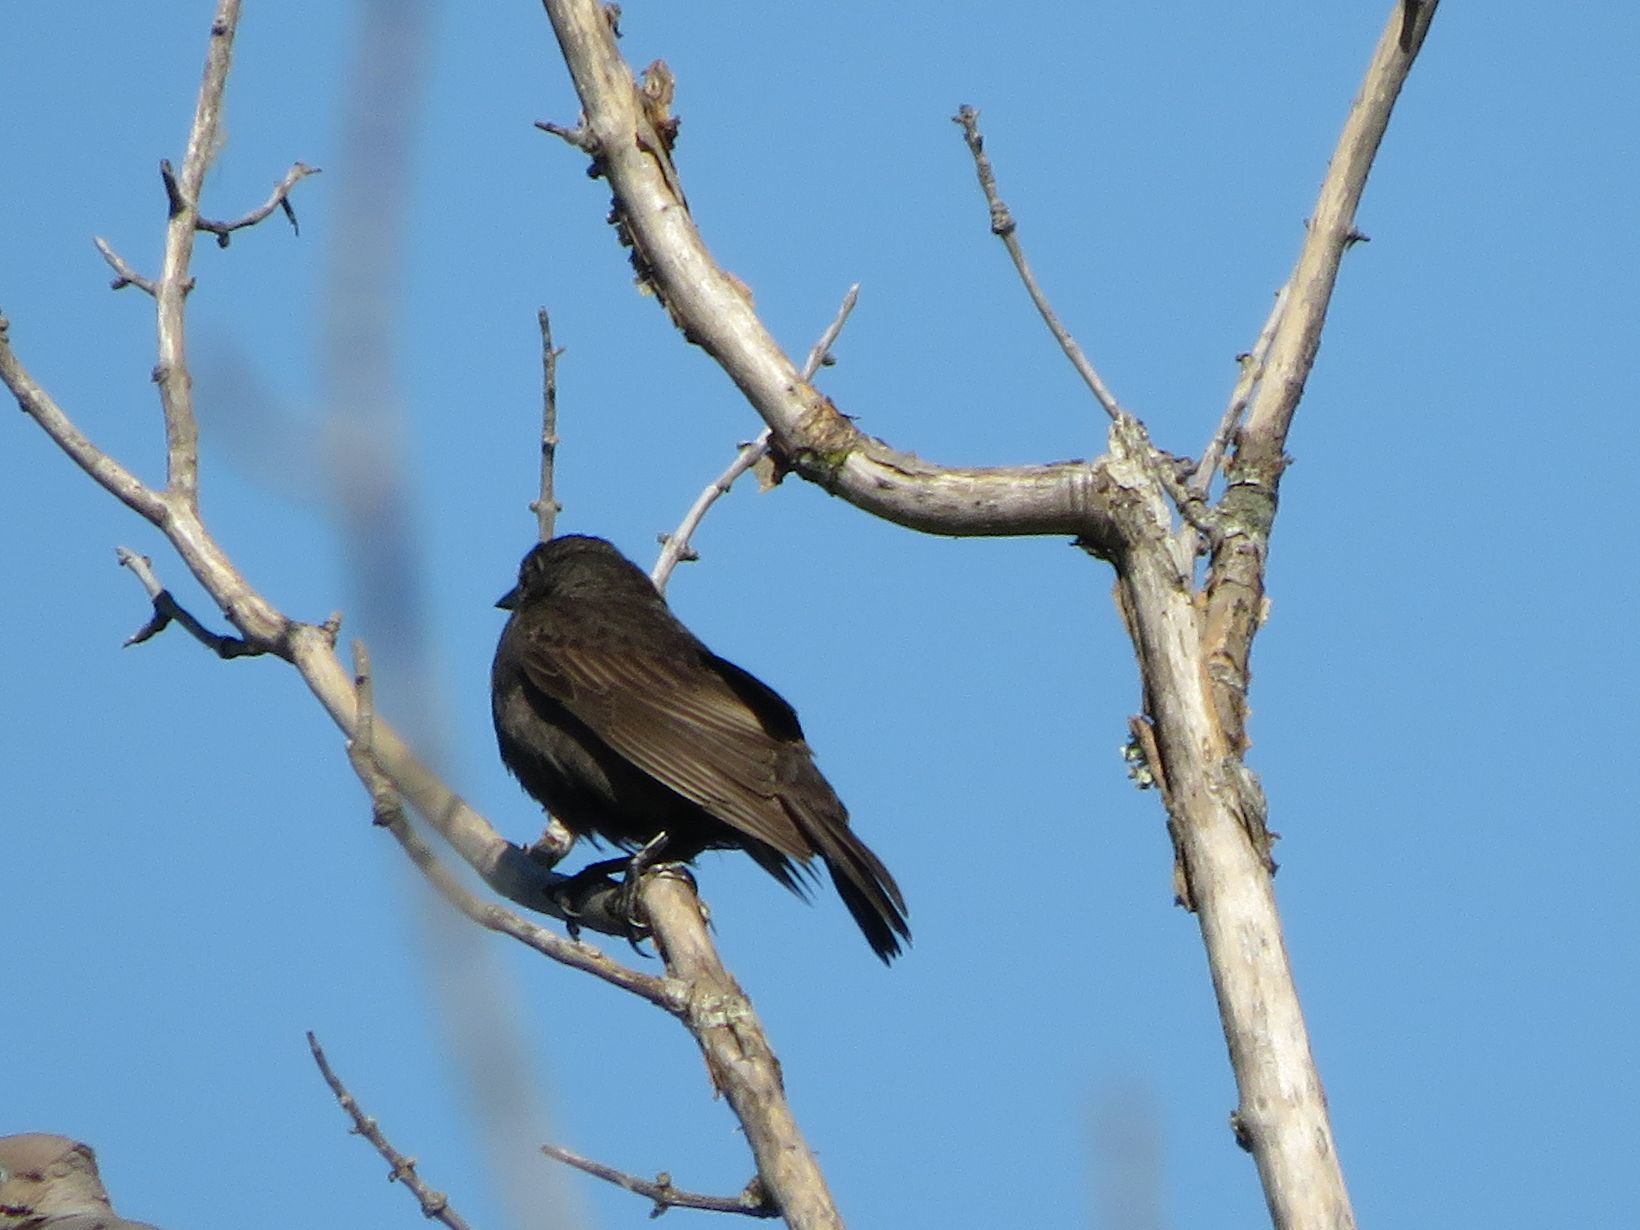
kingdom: Animalia
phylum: Chordata
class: Aves
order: Passeriformes
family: Icteridae
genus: Molothrus
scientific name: Molothrus bonariensis
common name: Shiny cowbird
